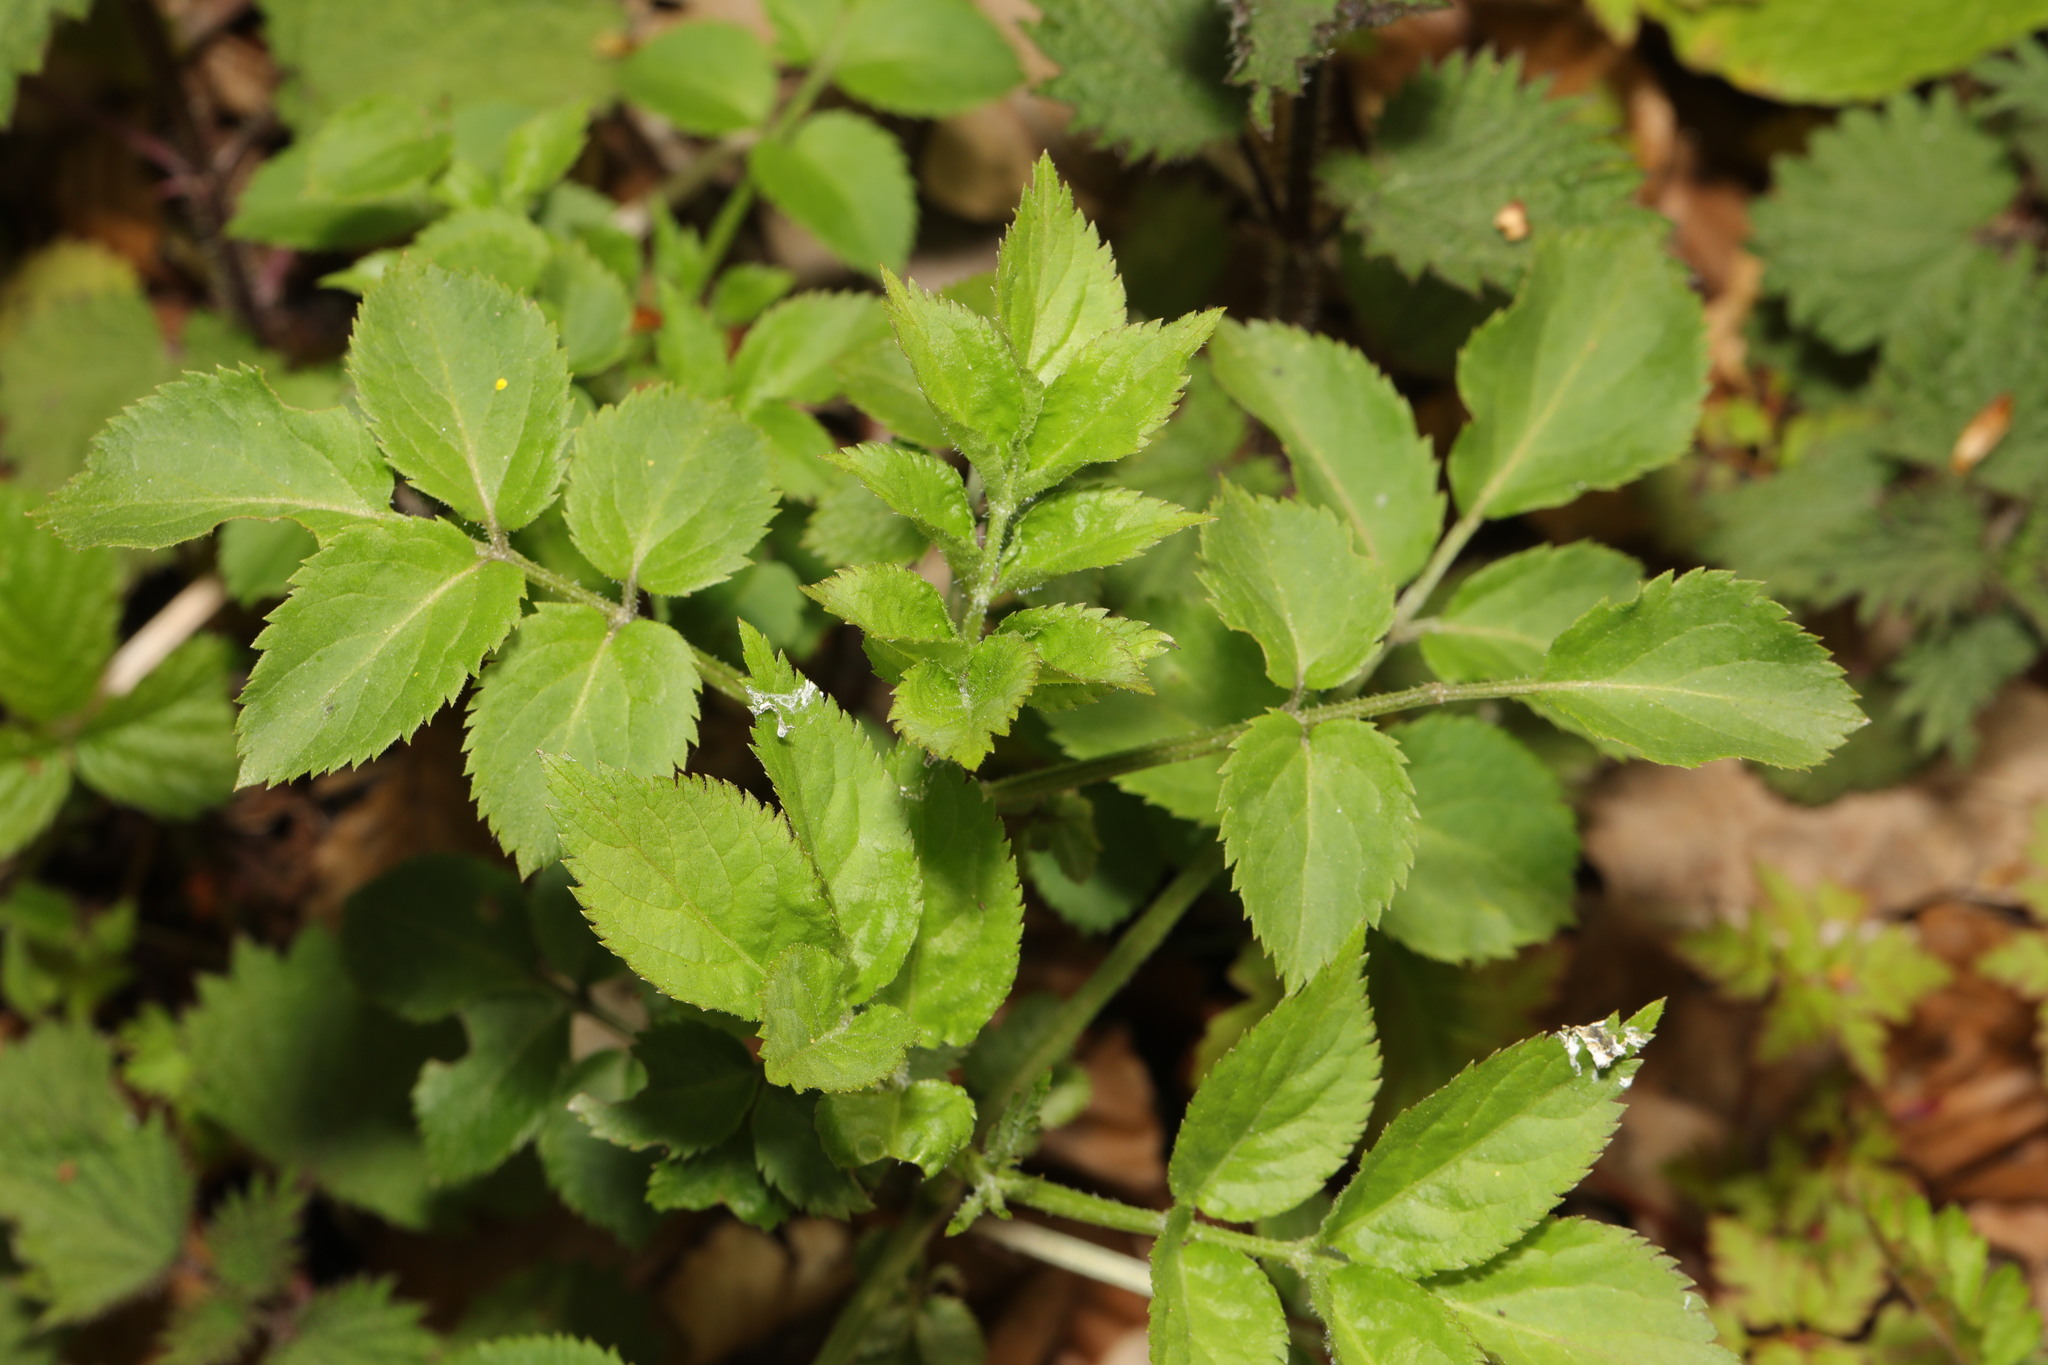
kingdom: Plantae
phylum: Tracheophyta
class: Magnoliopsida
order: Dipsacales
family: Viburnaceae
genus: Sambucus
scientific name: Sambucus nigra
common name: Elder
